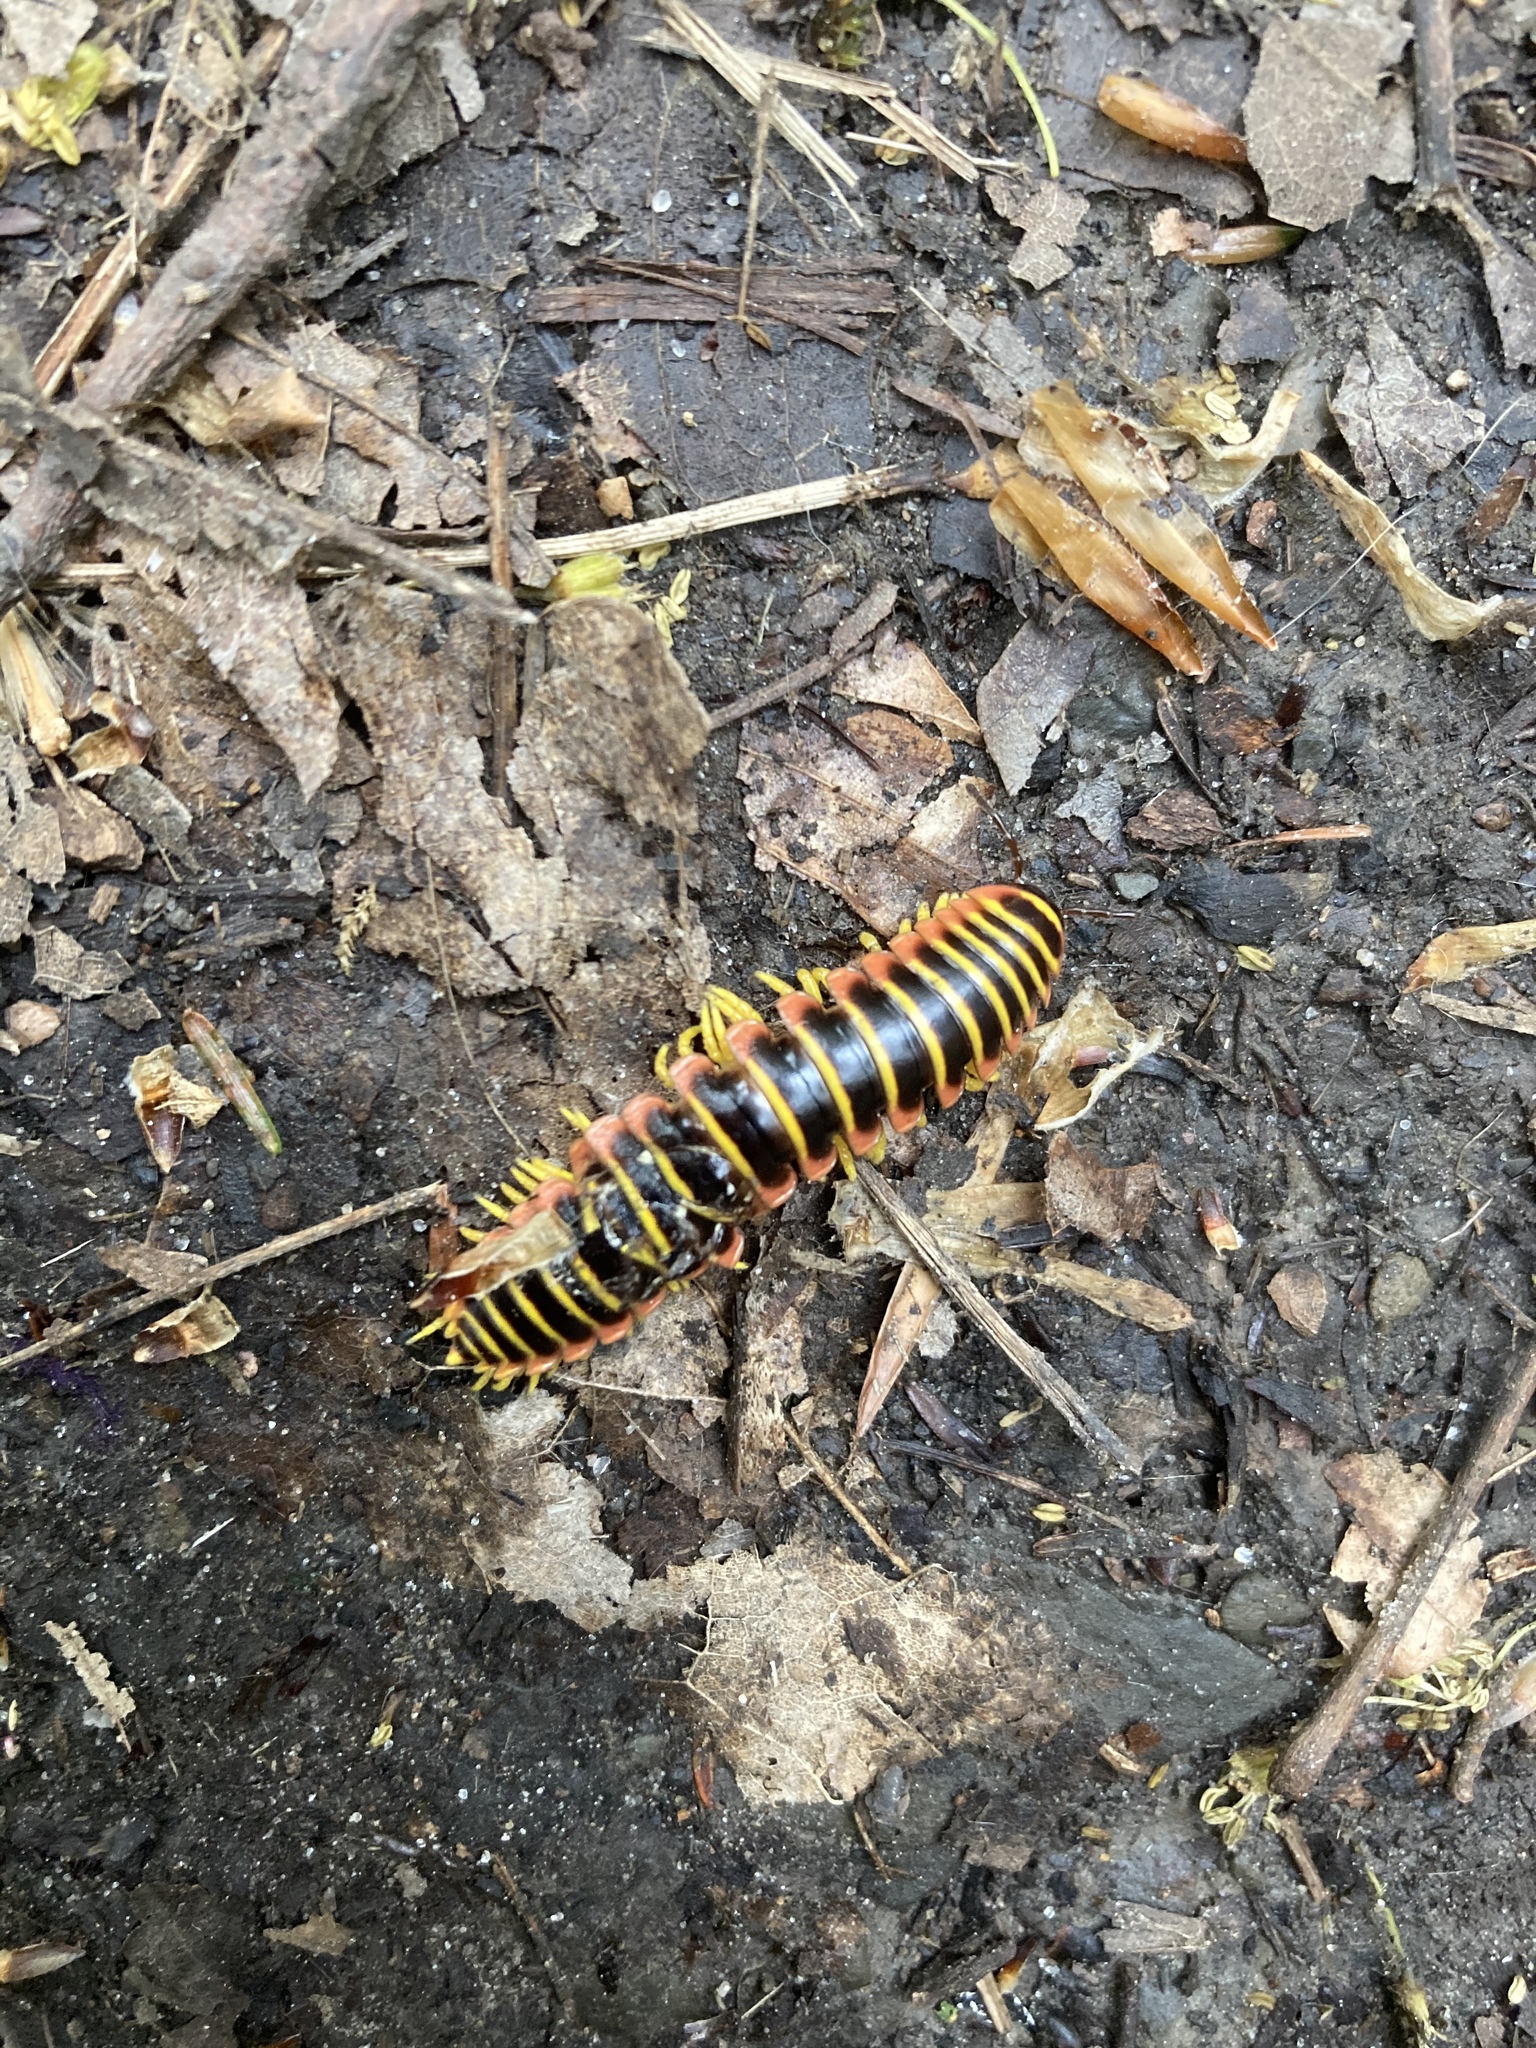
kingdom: Animalia
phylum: Arthropoda
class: Diplopoda
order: Polydesmida
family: Xystodesmidae
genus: Apheloria
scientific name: Apheloria virginiensis
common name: Black-and-gold flat millipede
